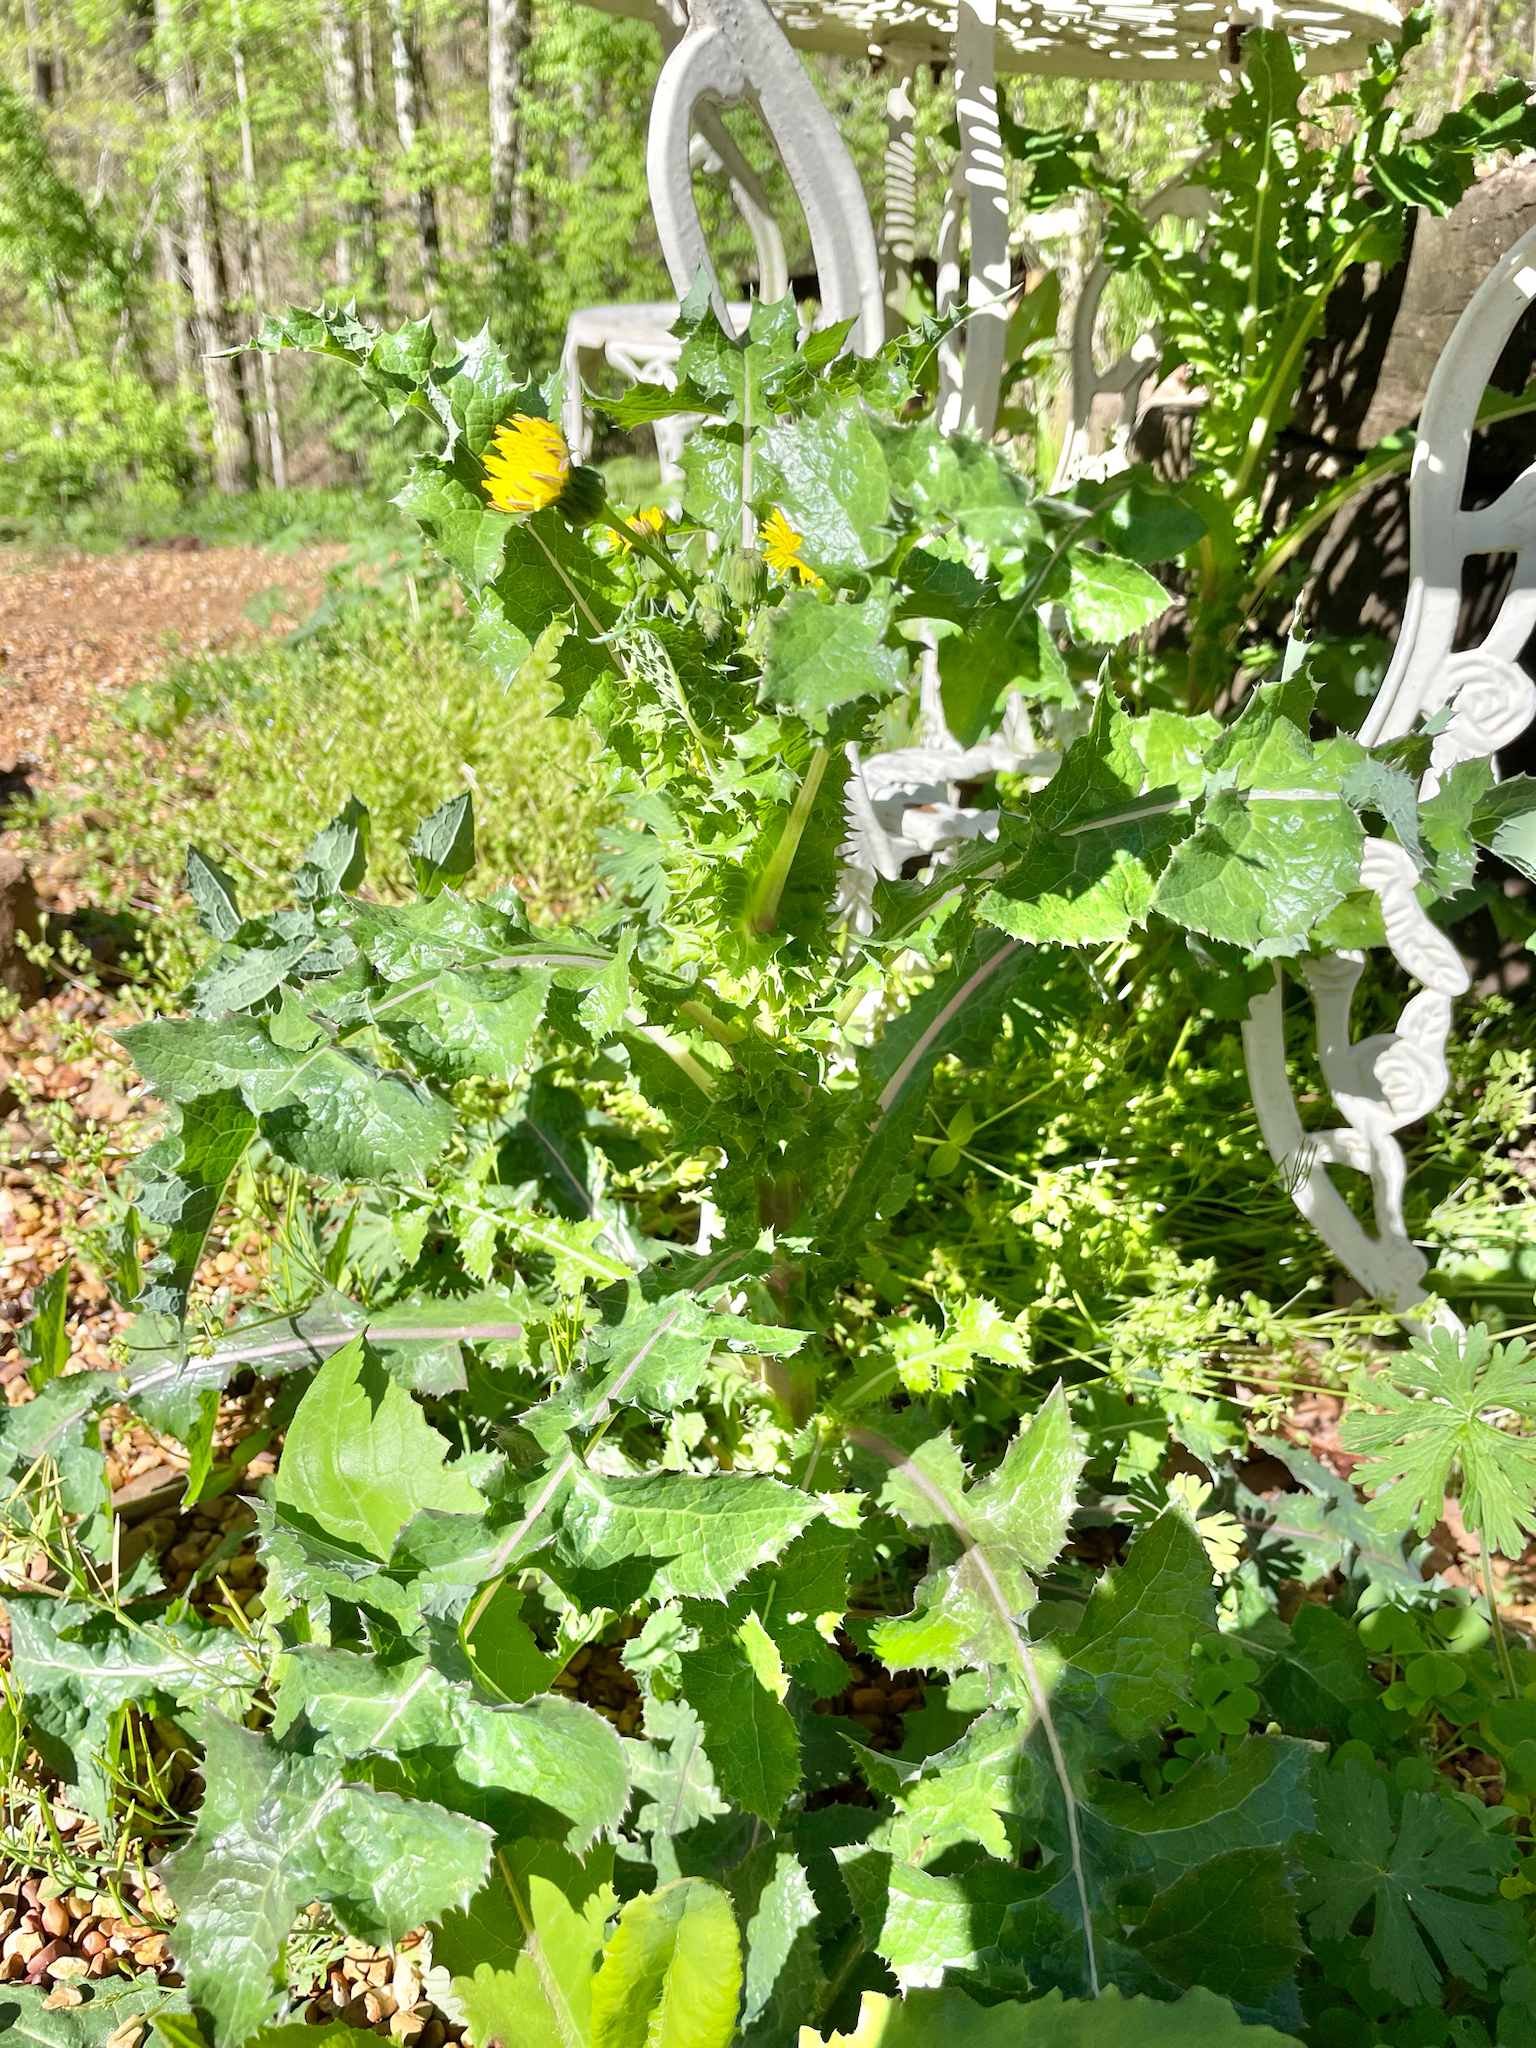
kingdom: Plantae
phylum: Tracheophyta
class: Magnoliopsida
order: Asterales
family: Asteraceae
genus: Sonchus
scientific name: Sonchus asper
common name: Prickly sow-thistle
